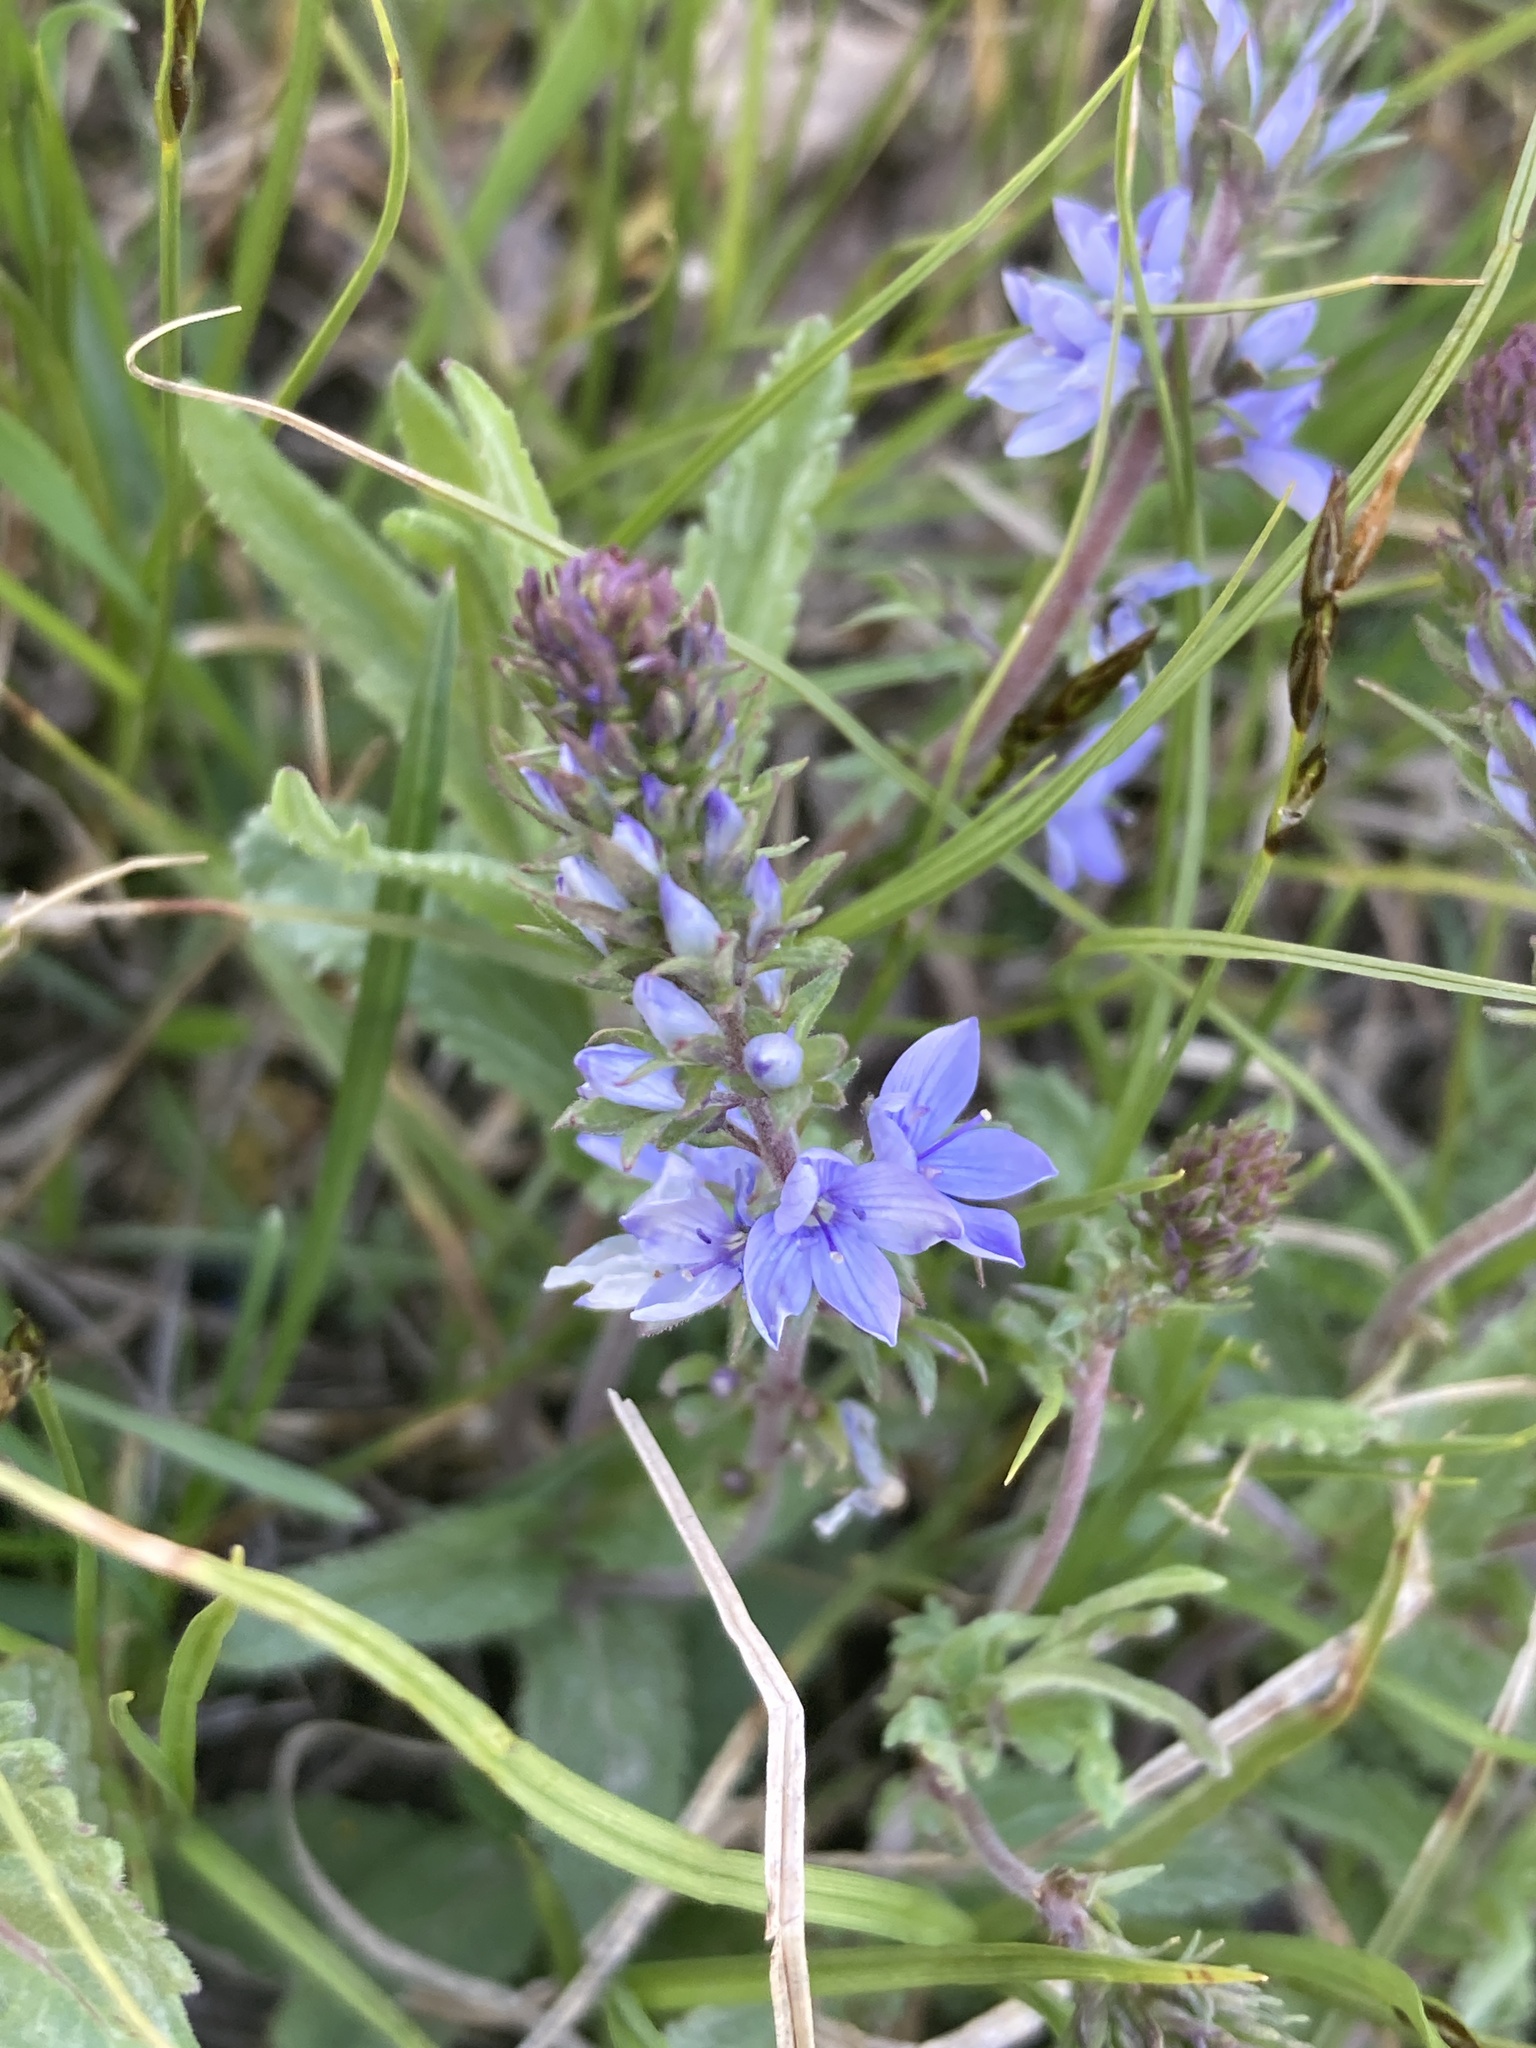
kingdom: Plantae
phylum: Tracheophyta
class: Magnoliopsida
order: Lamiales
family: Plantaginaceae
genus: Veronica
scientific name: Veronica prostrata
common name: Prostrate speedwell
